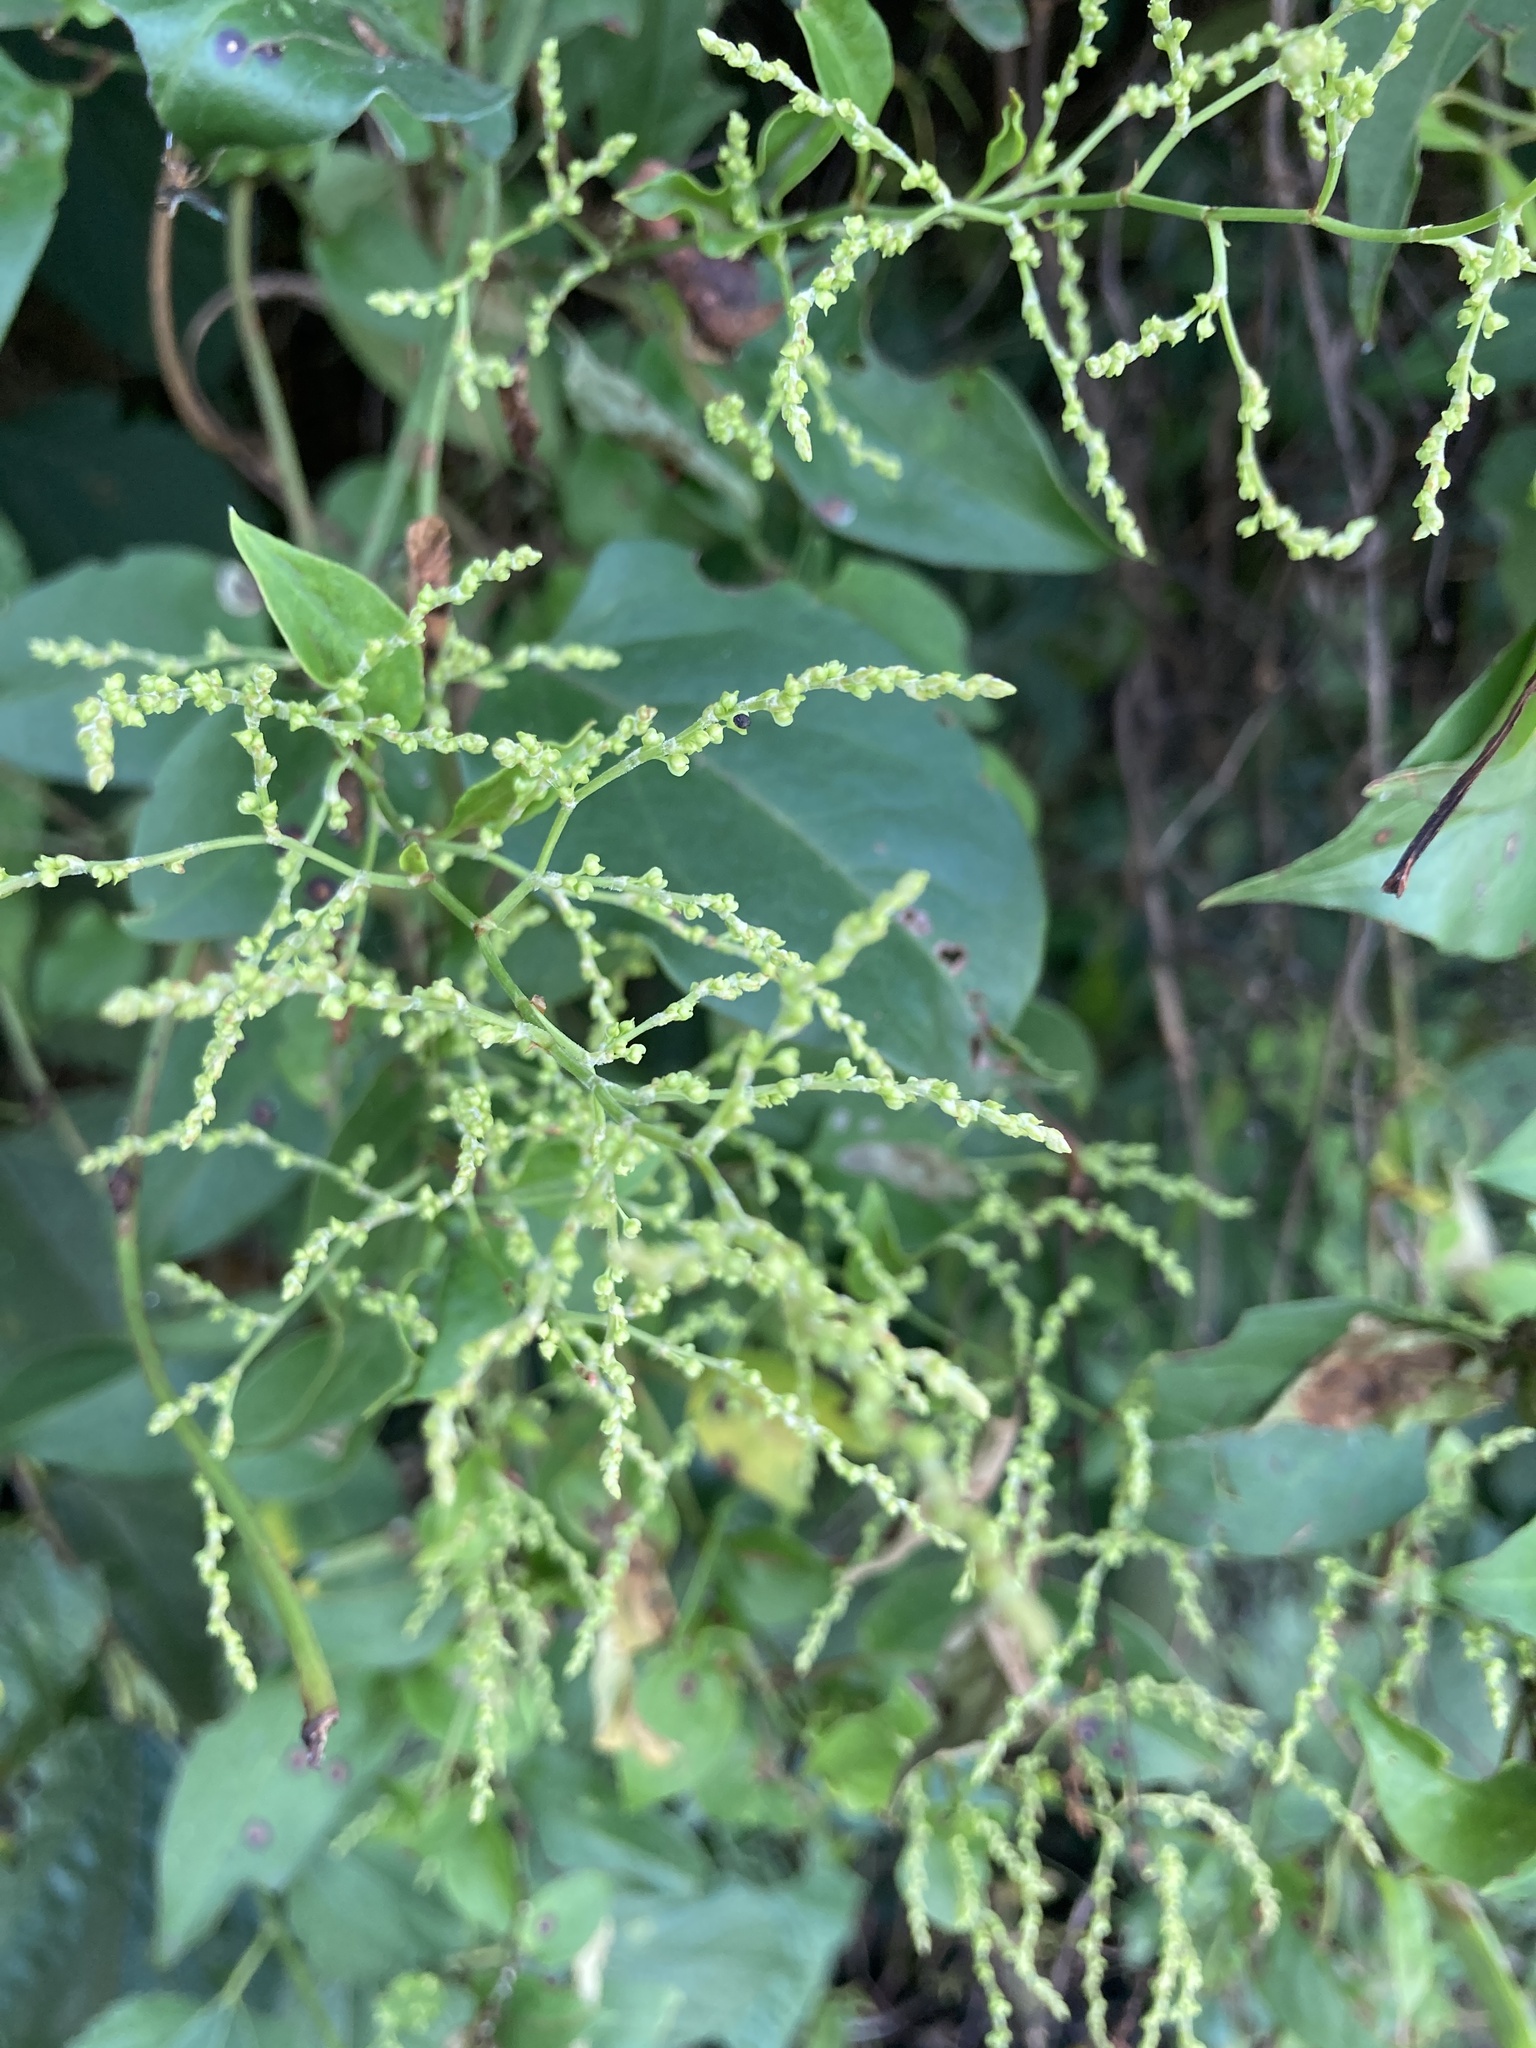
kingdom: Plantae
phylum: Tracheophyta
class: Magnoliopsida
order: Caryophyllales
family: Polygonaceae
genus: Reynoutria
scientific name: Reynoutria multiflora
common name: Chinese fleeceflower
